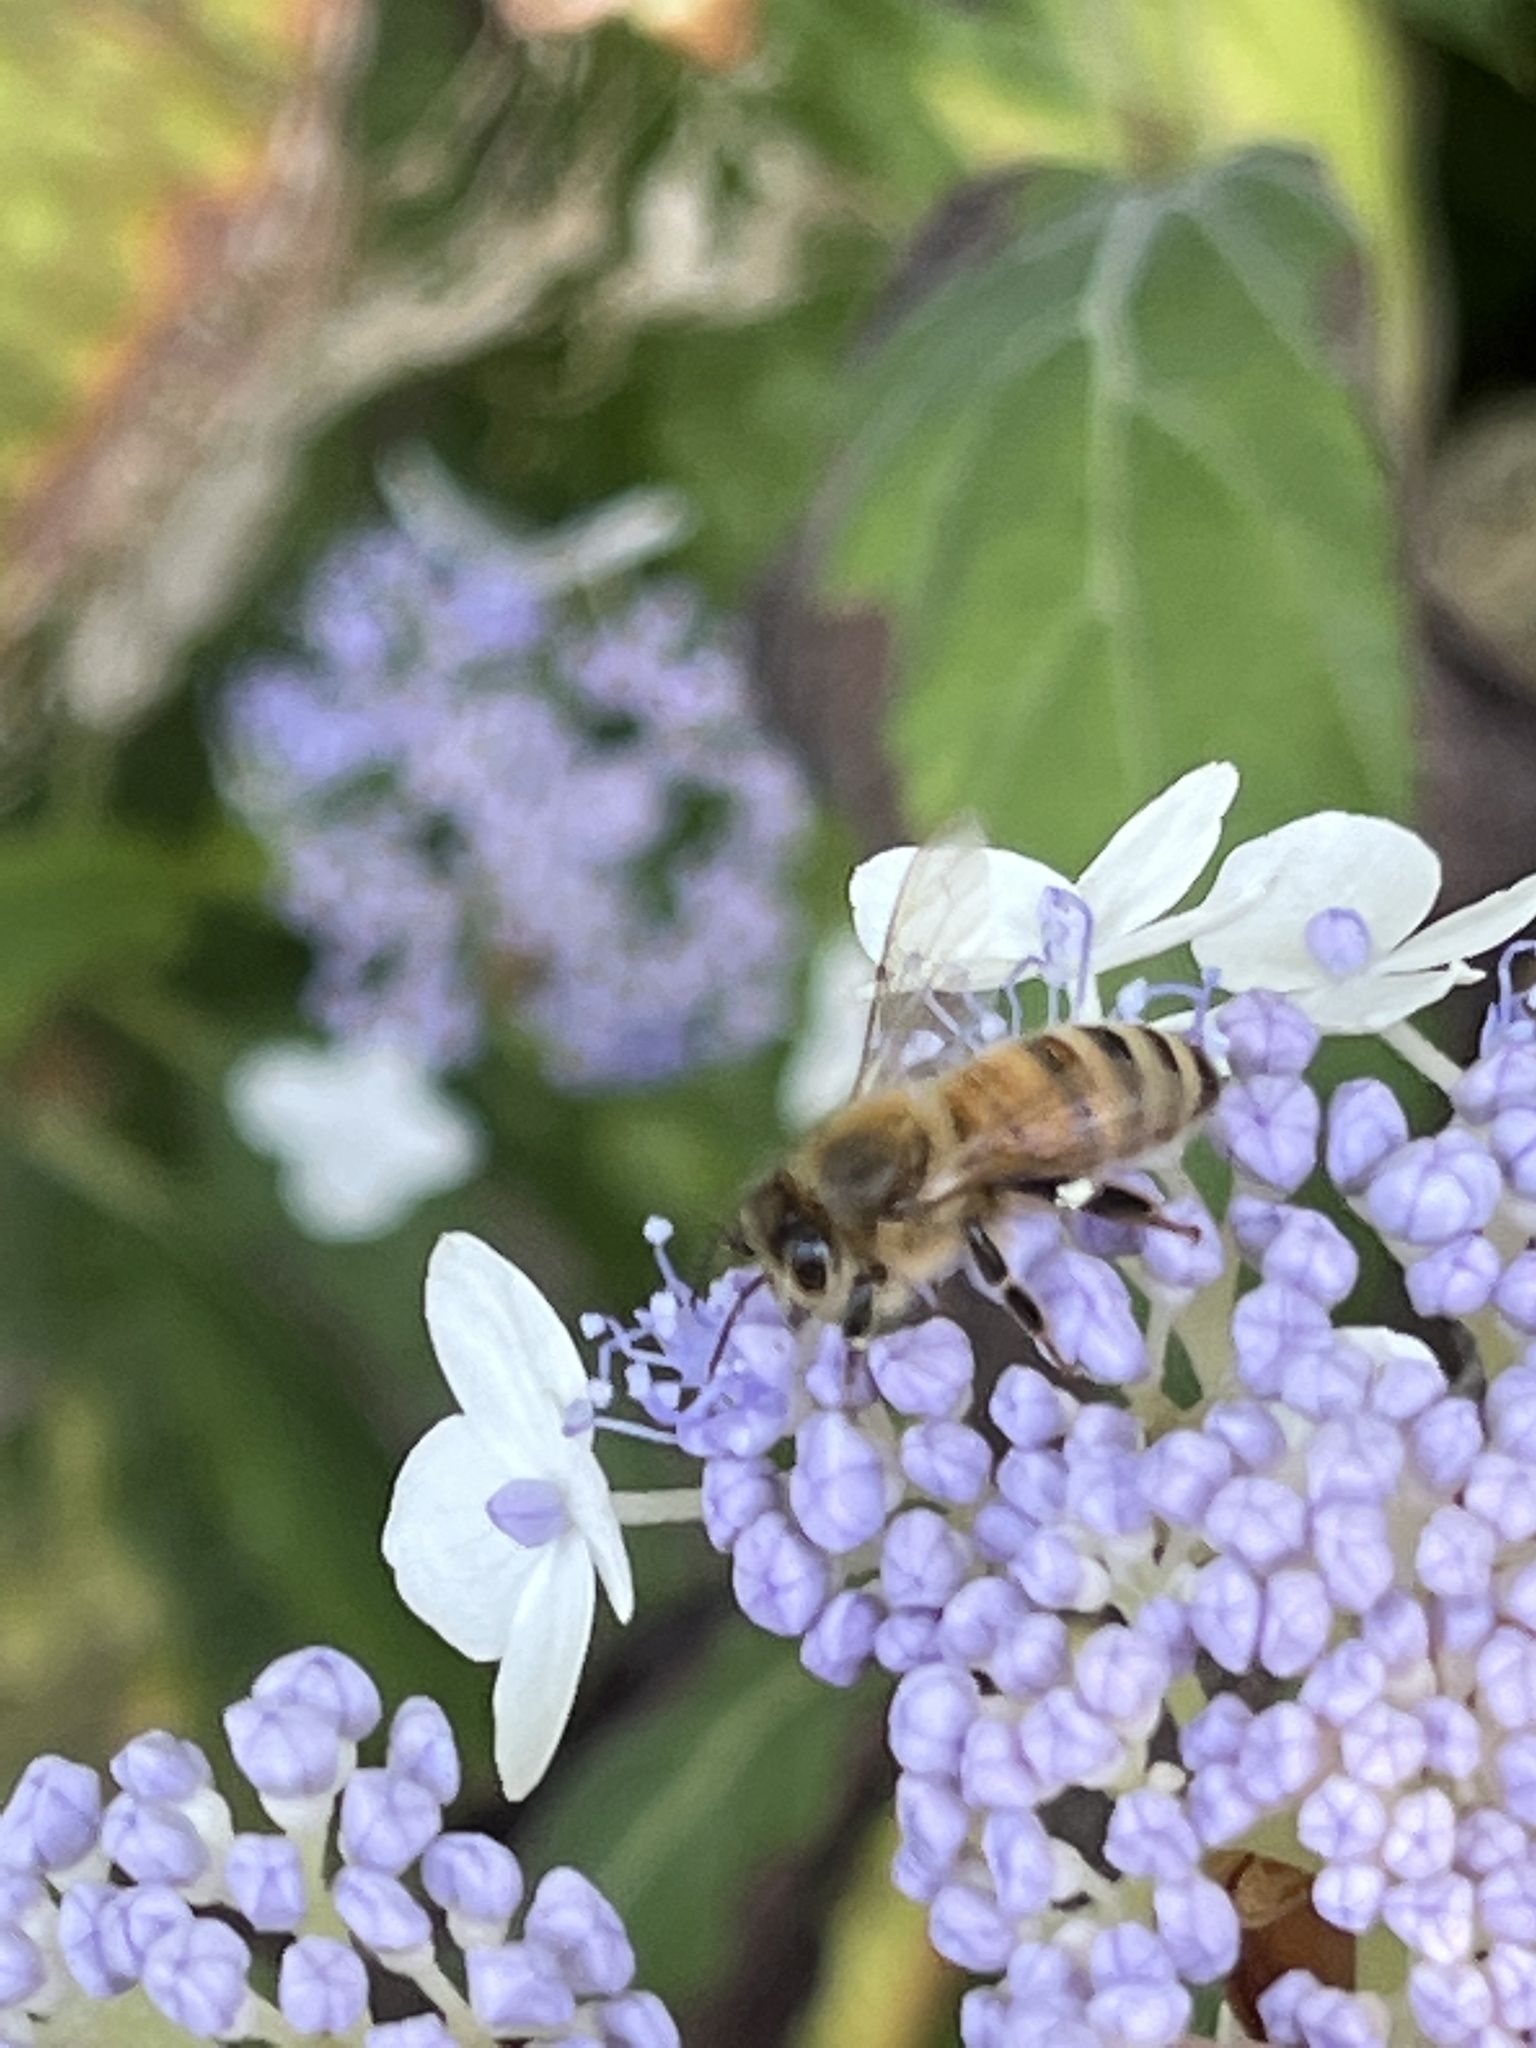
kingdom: Animalia
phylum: Arthropoda
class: Insecta
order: Hymenoptera
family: Apidae
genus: Apis
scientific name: Apis mellifera
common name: Honey bee
